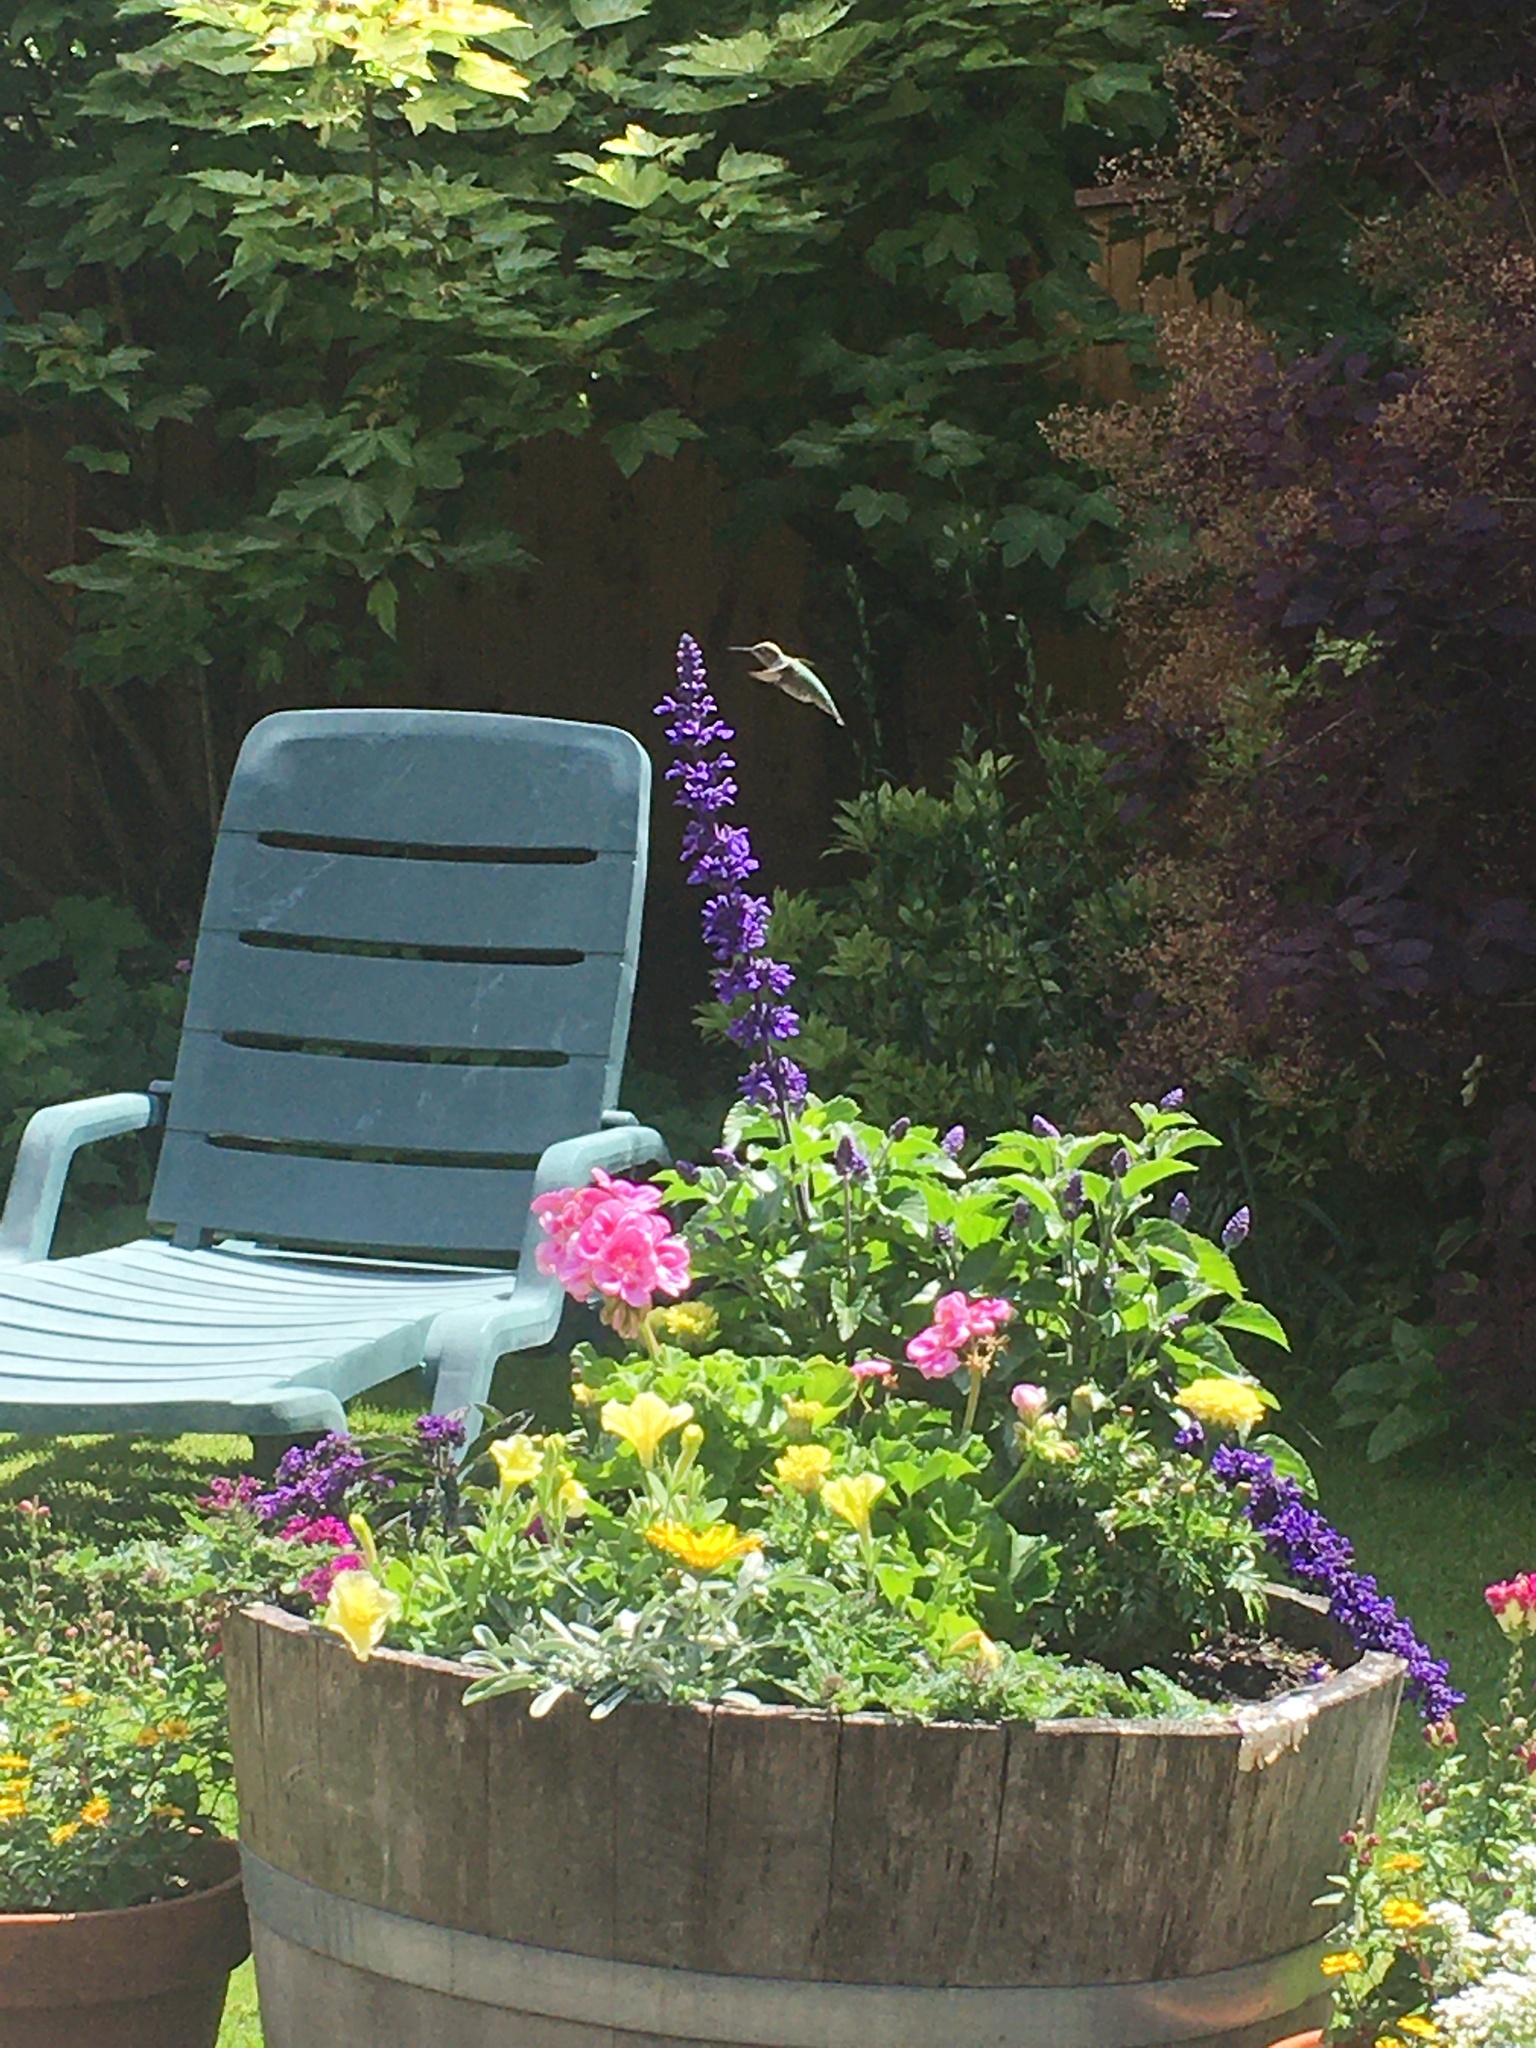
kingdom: Animalia
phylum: Chordata
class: Aves
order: Apodiformes
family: Trochilidae
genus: Calypte
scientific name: Calypte anna
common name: Anna's hummingbird
